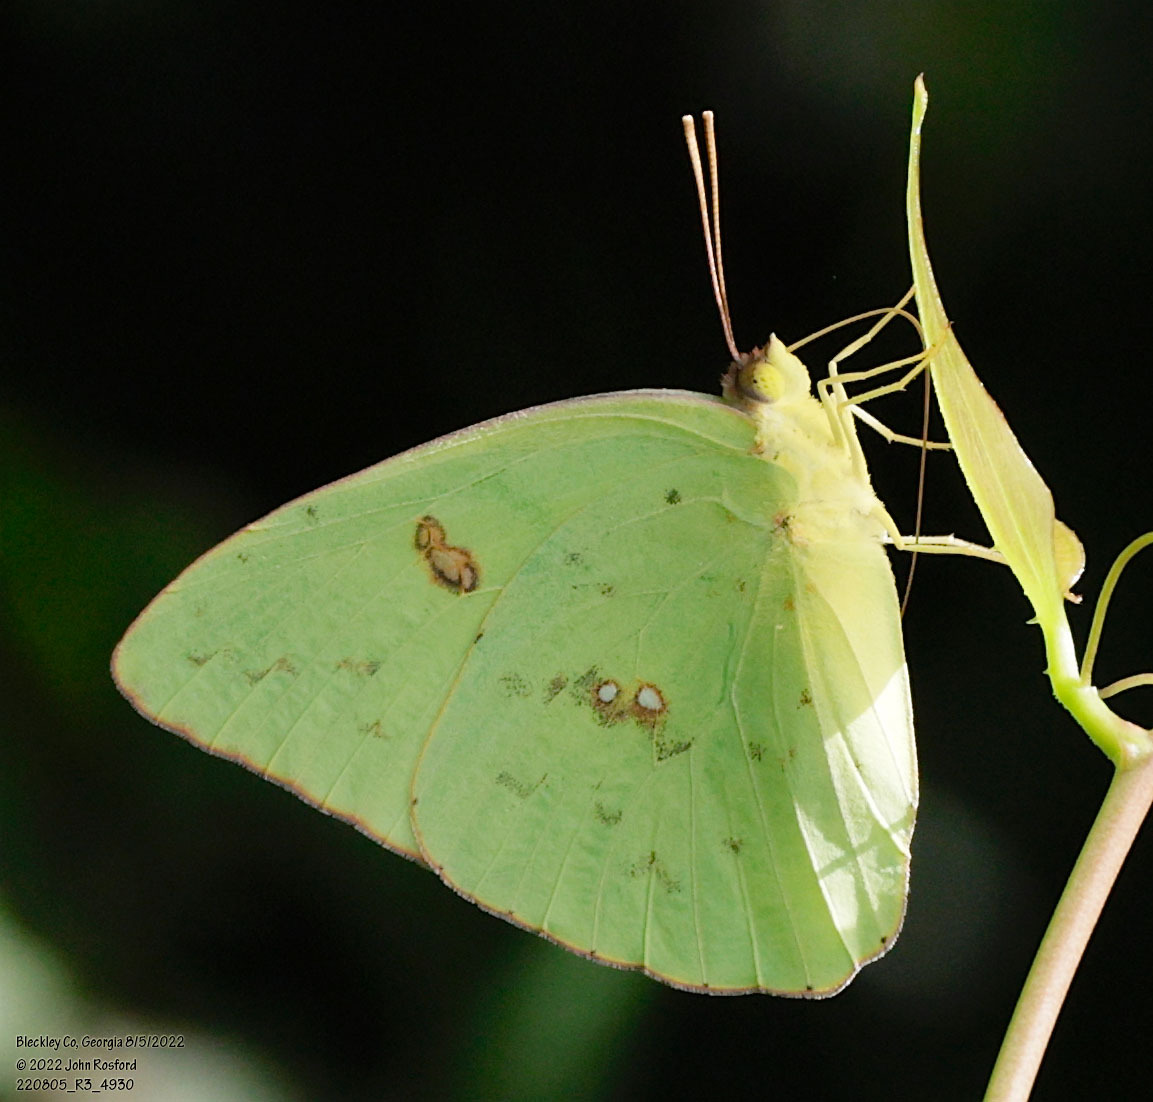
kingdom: Animalia
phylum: Arthropoda
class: Insecta
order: Lepidoptera
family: Pieridae
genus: Phoebis
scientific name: Phoebis sennae
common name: Cloudless sulphur
